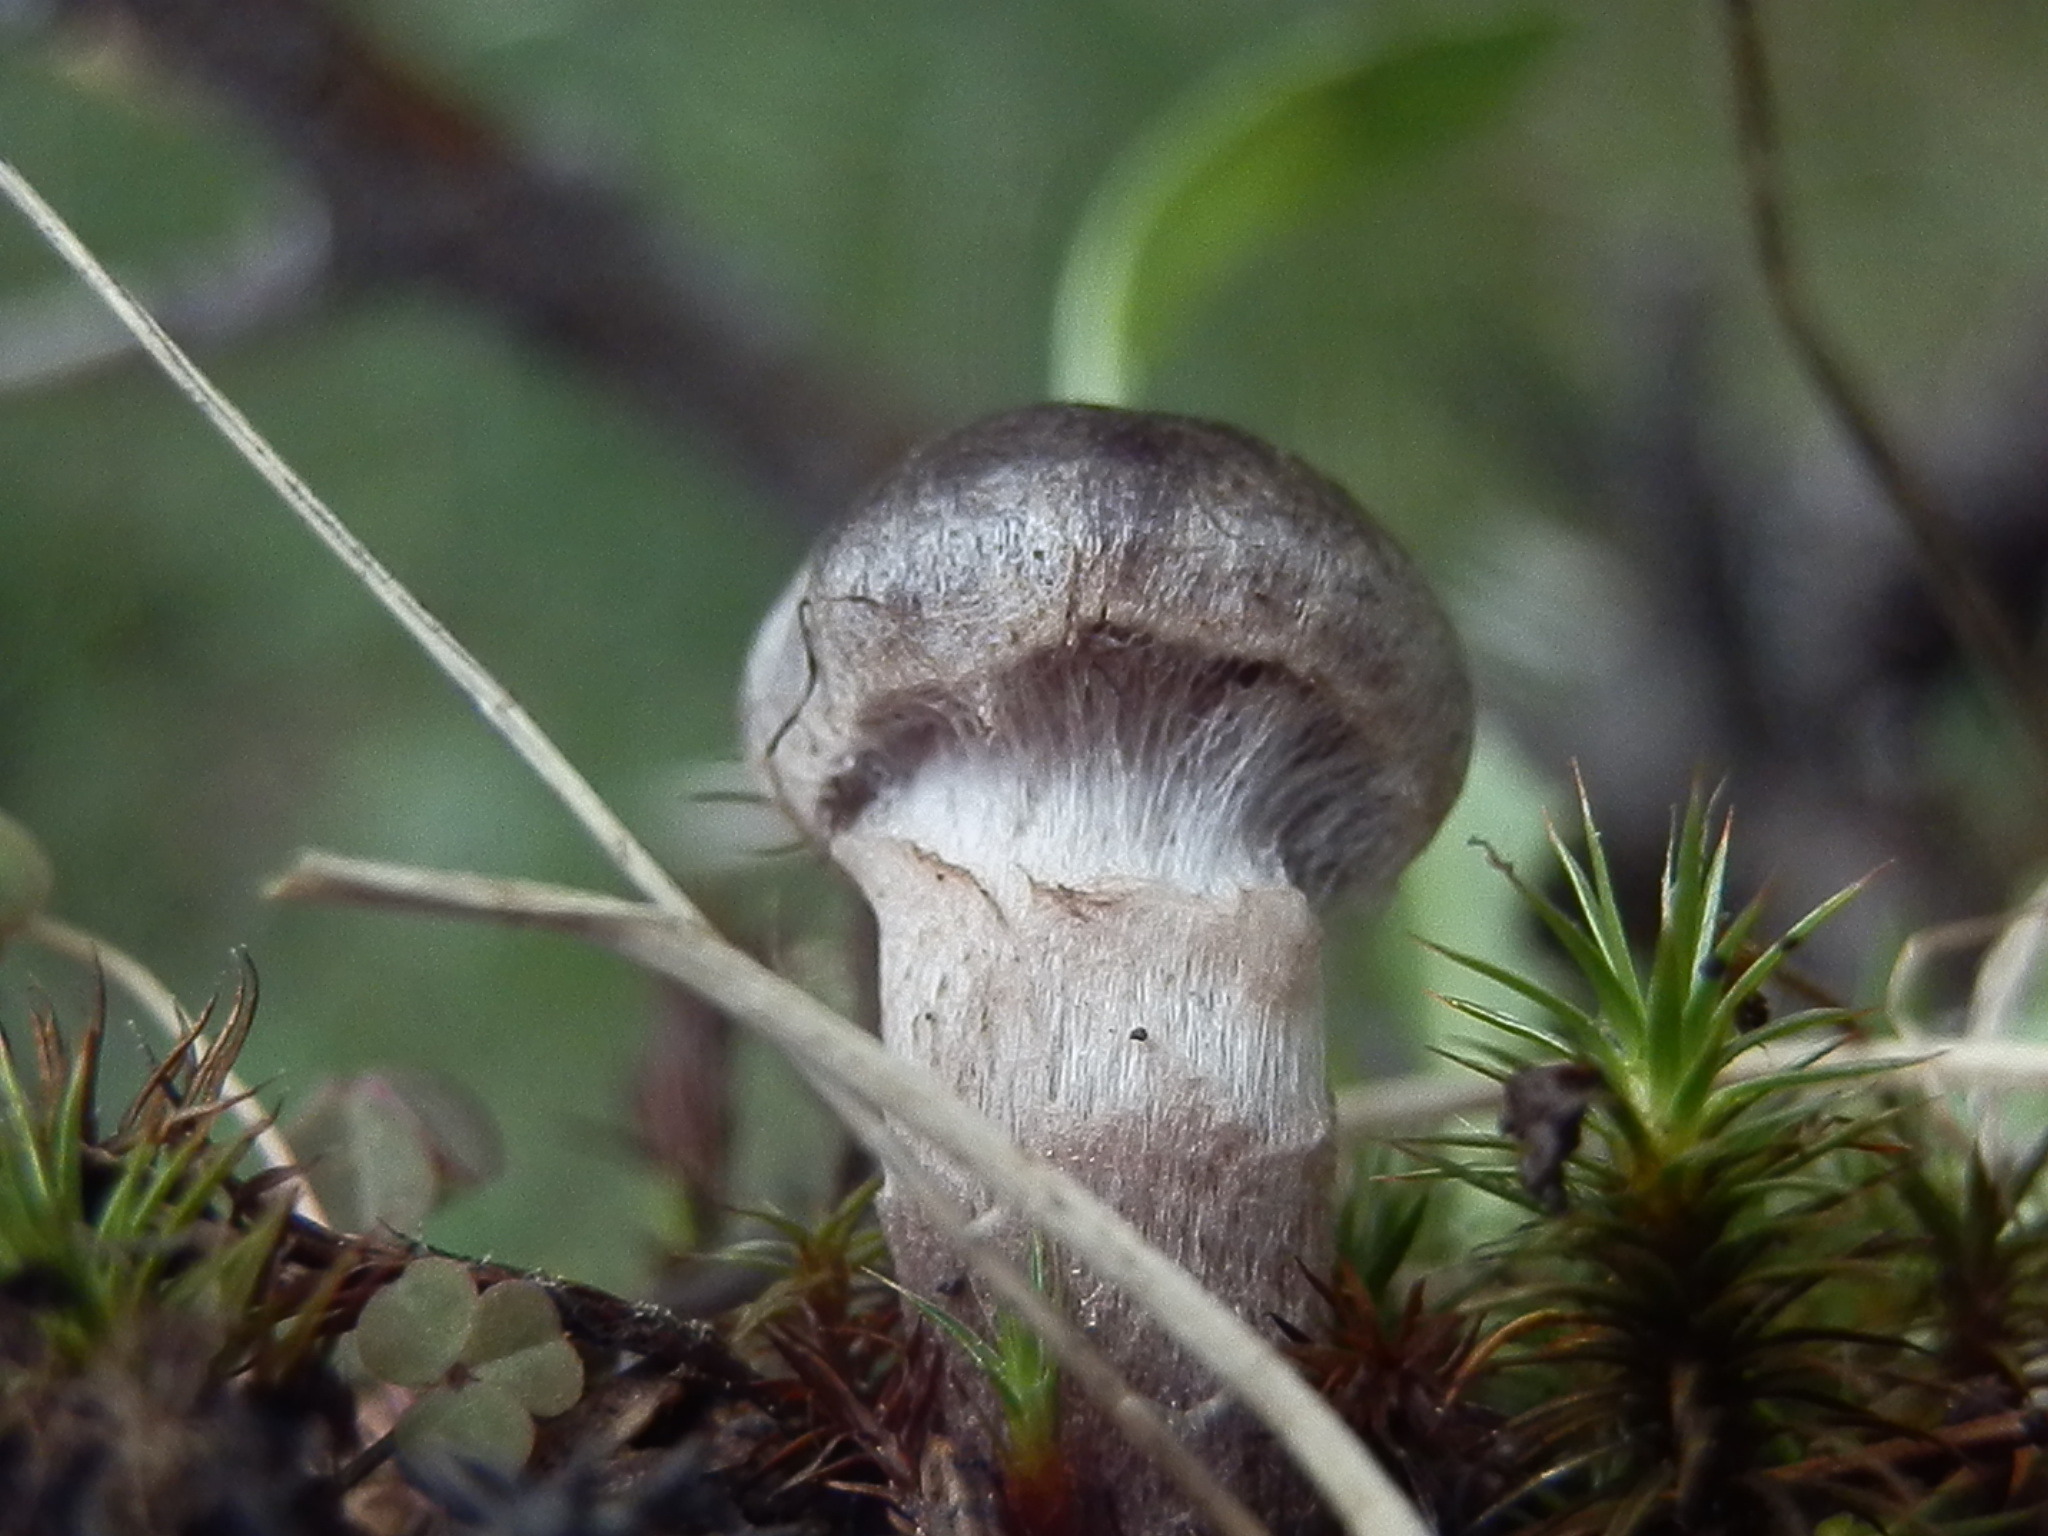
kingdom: Fungi
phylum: Basidiomycota
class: Agaricomycetes
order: Agaricales
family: Cortinariaceae
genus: Cortinarius
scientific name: Cortinarius suberythrinus
